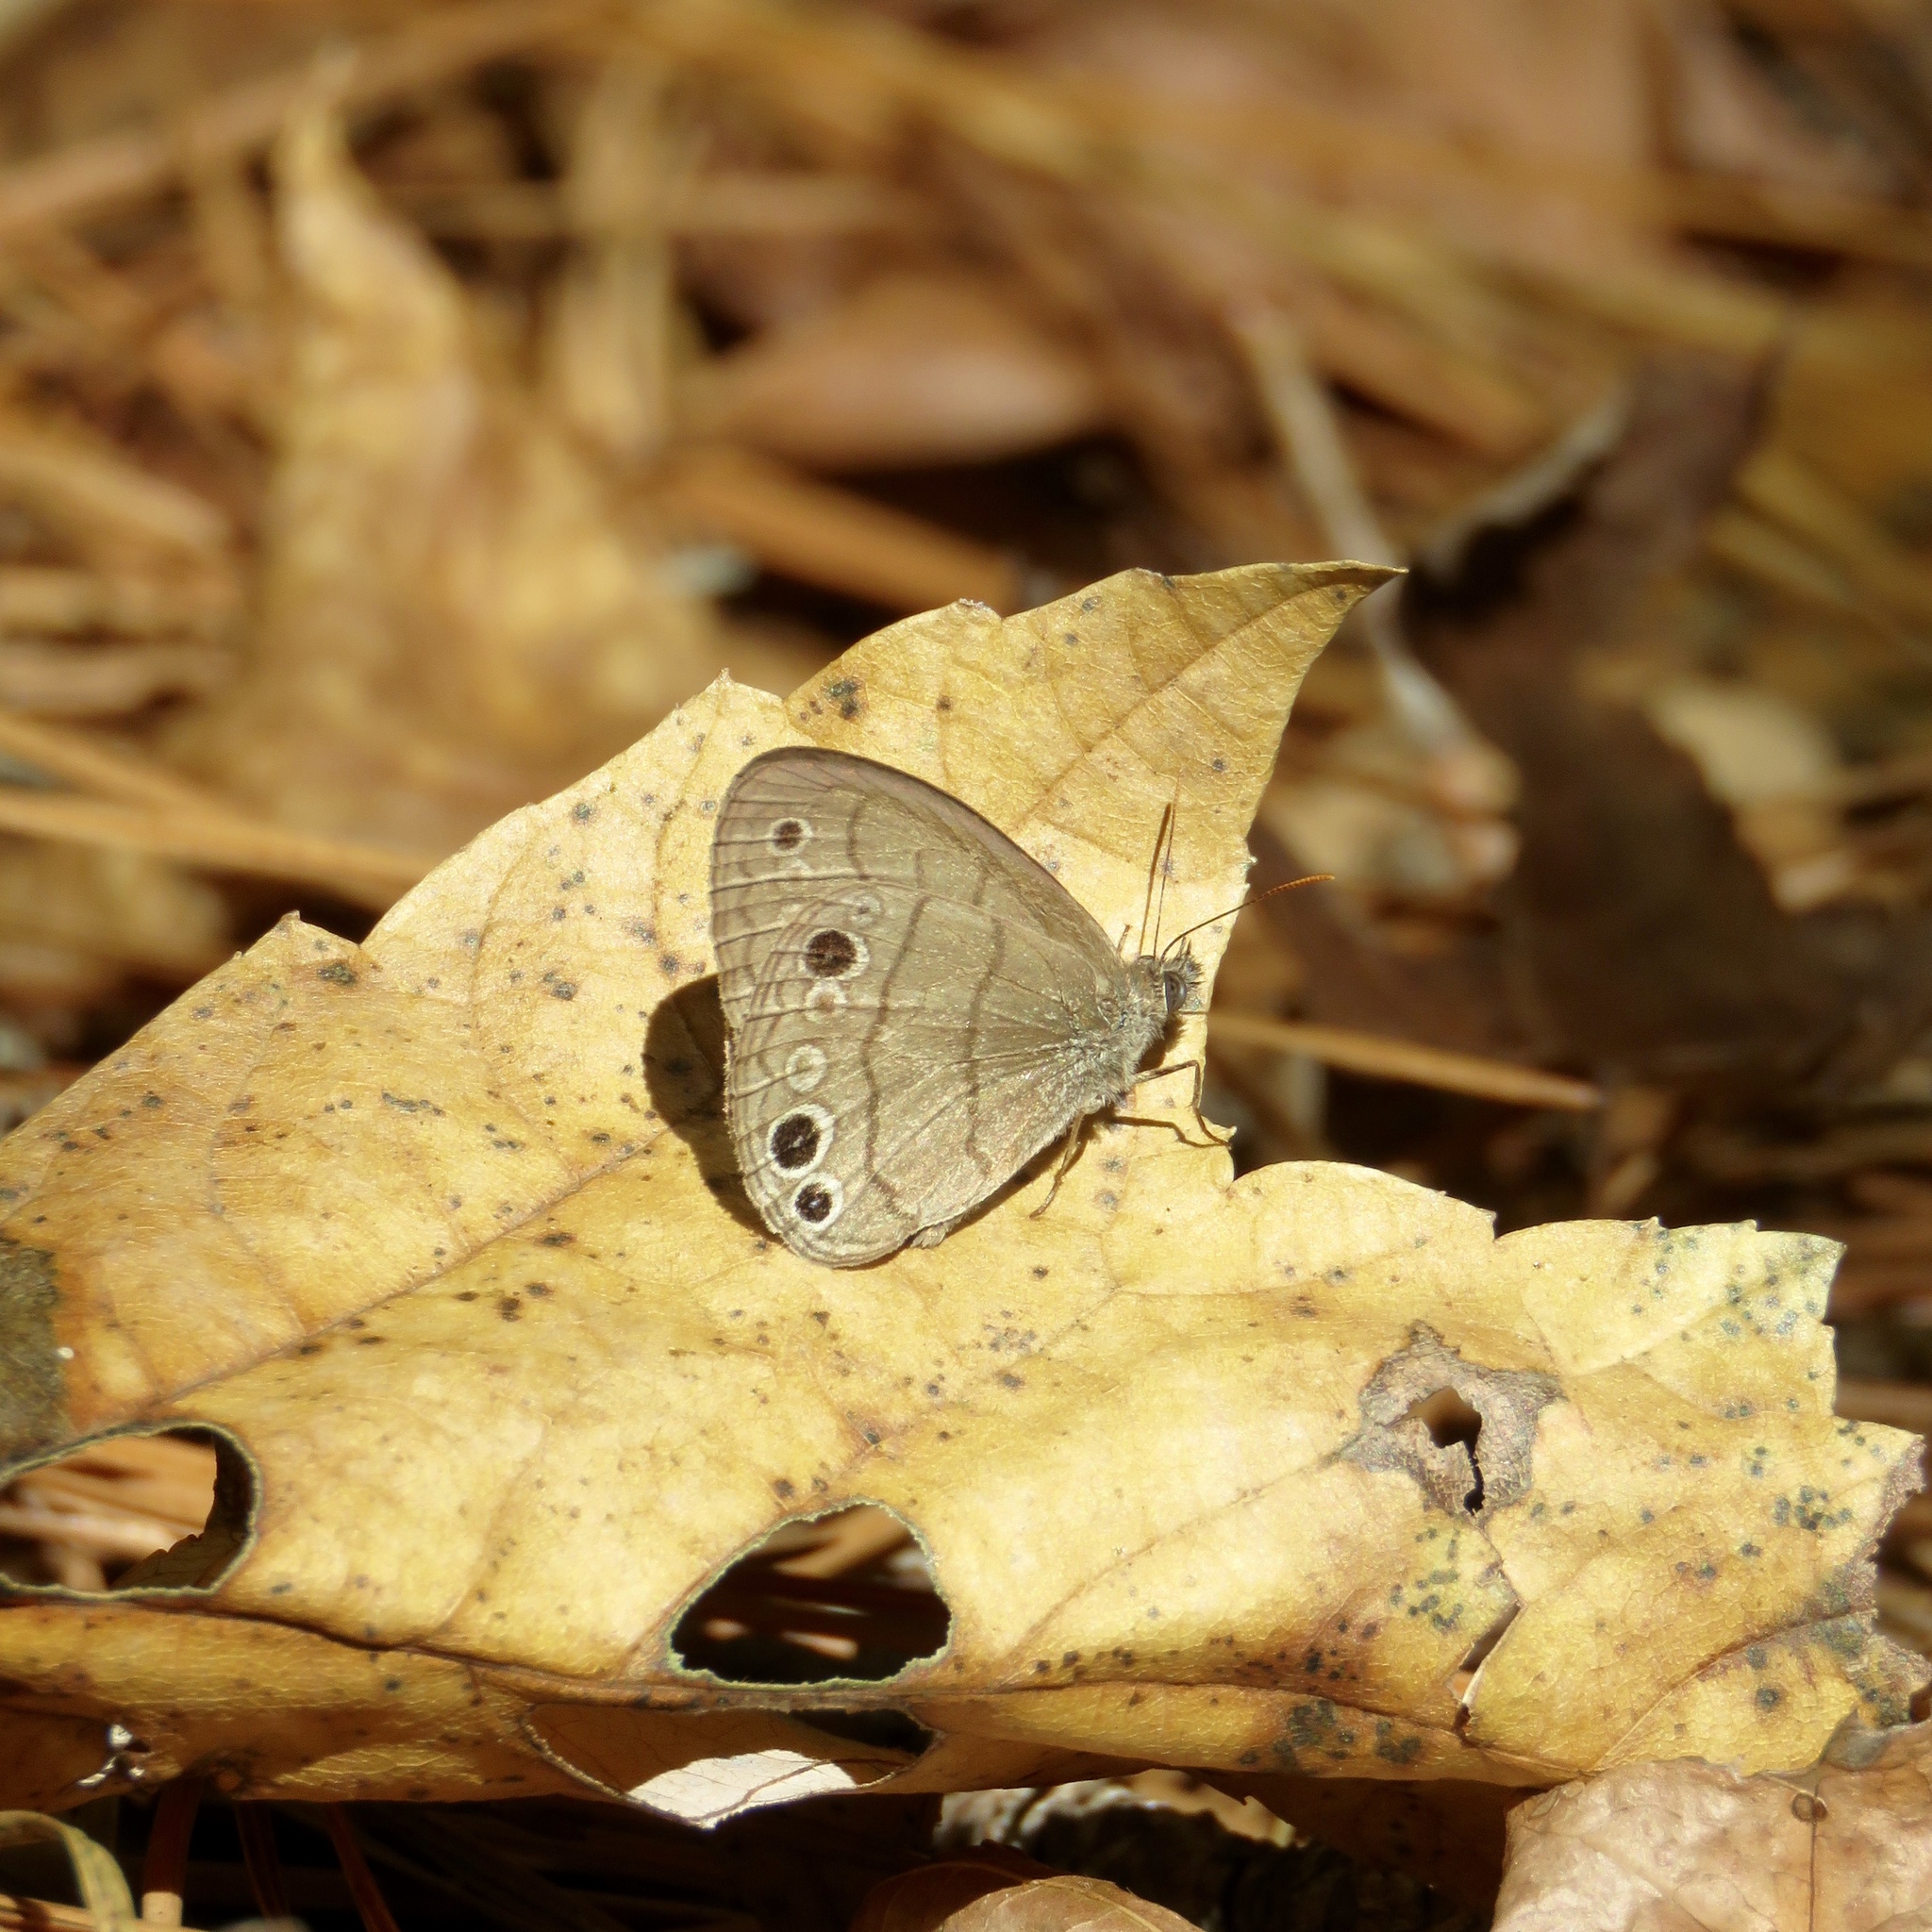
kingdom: Animalia
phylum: Arthropoda
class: Insecta
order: Lepidoptera
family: Nymphalidae
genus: Hermeuptychia
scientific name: Hermeuptychia intricata
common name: Intricate satyr
